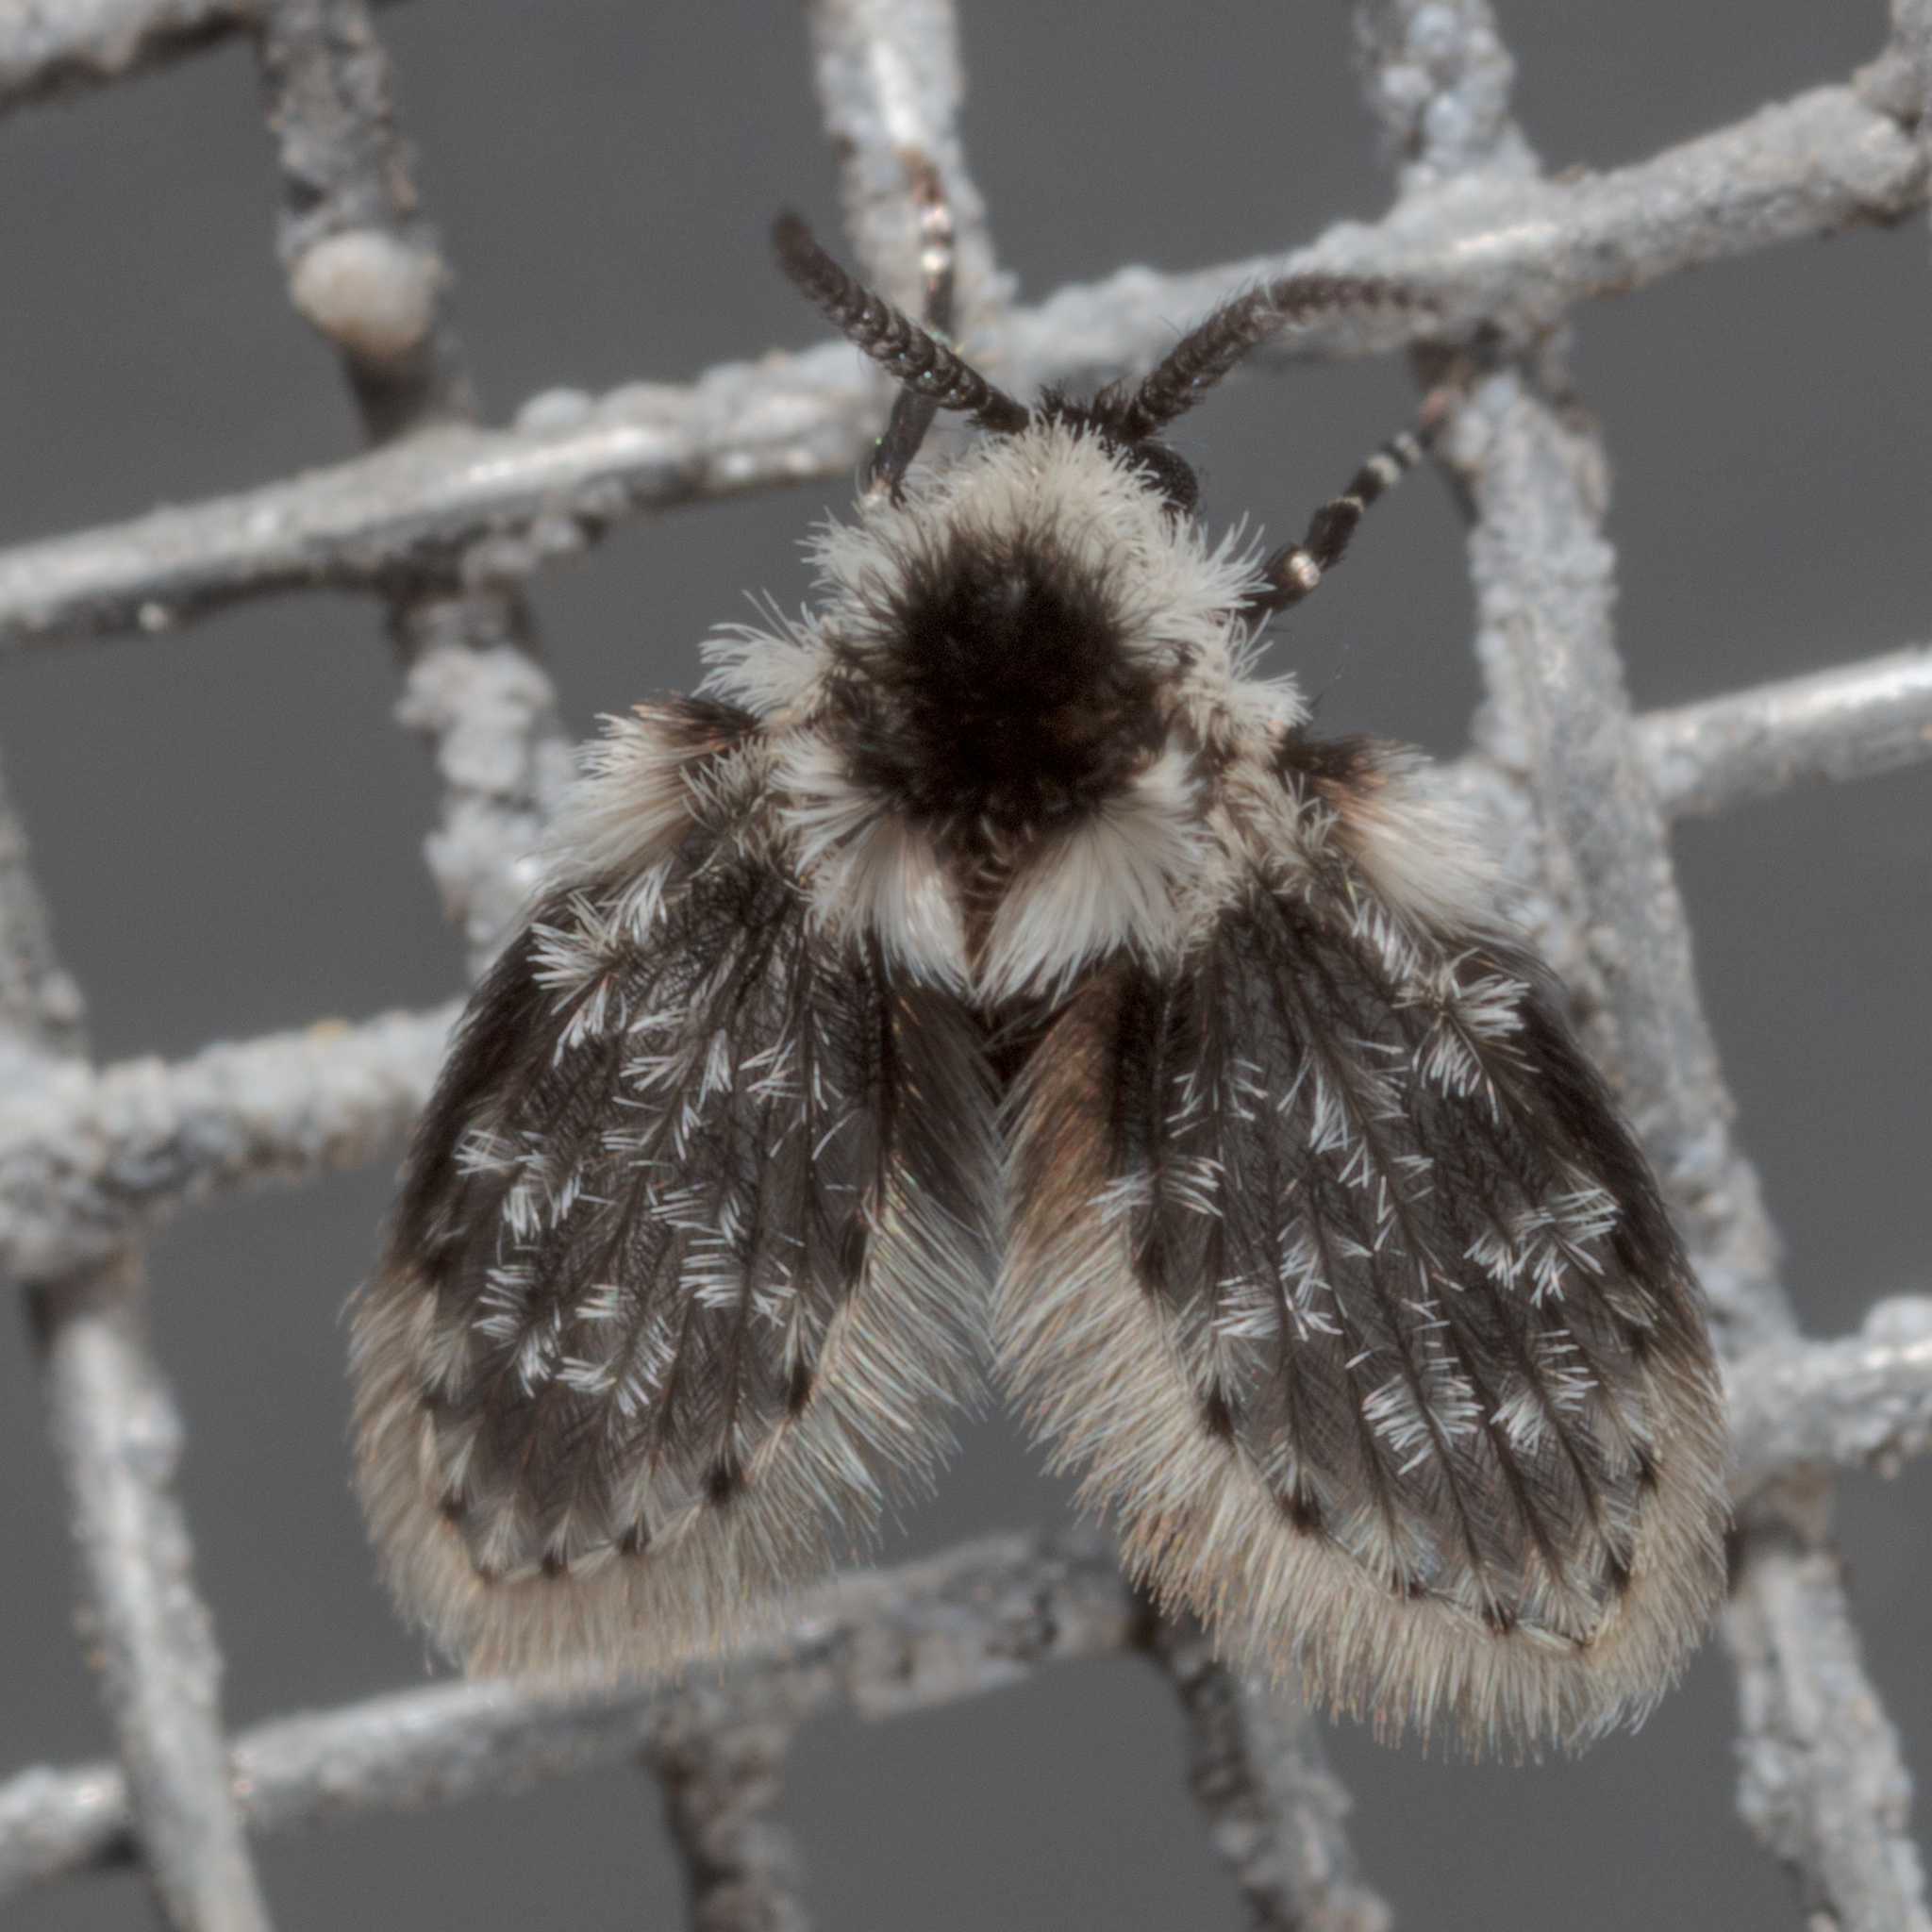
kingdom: Animalia
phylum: Arthropoda
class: Insecta
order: Diptera
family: Psychodidae
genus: Lepiseodina
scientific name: Lepiseodina
